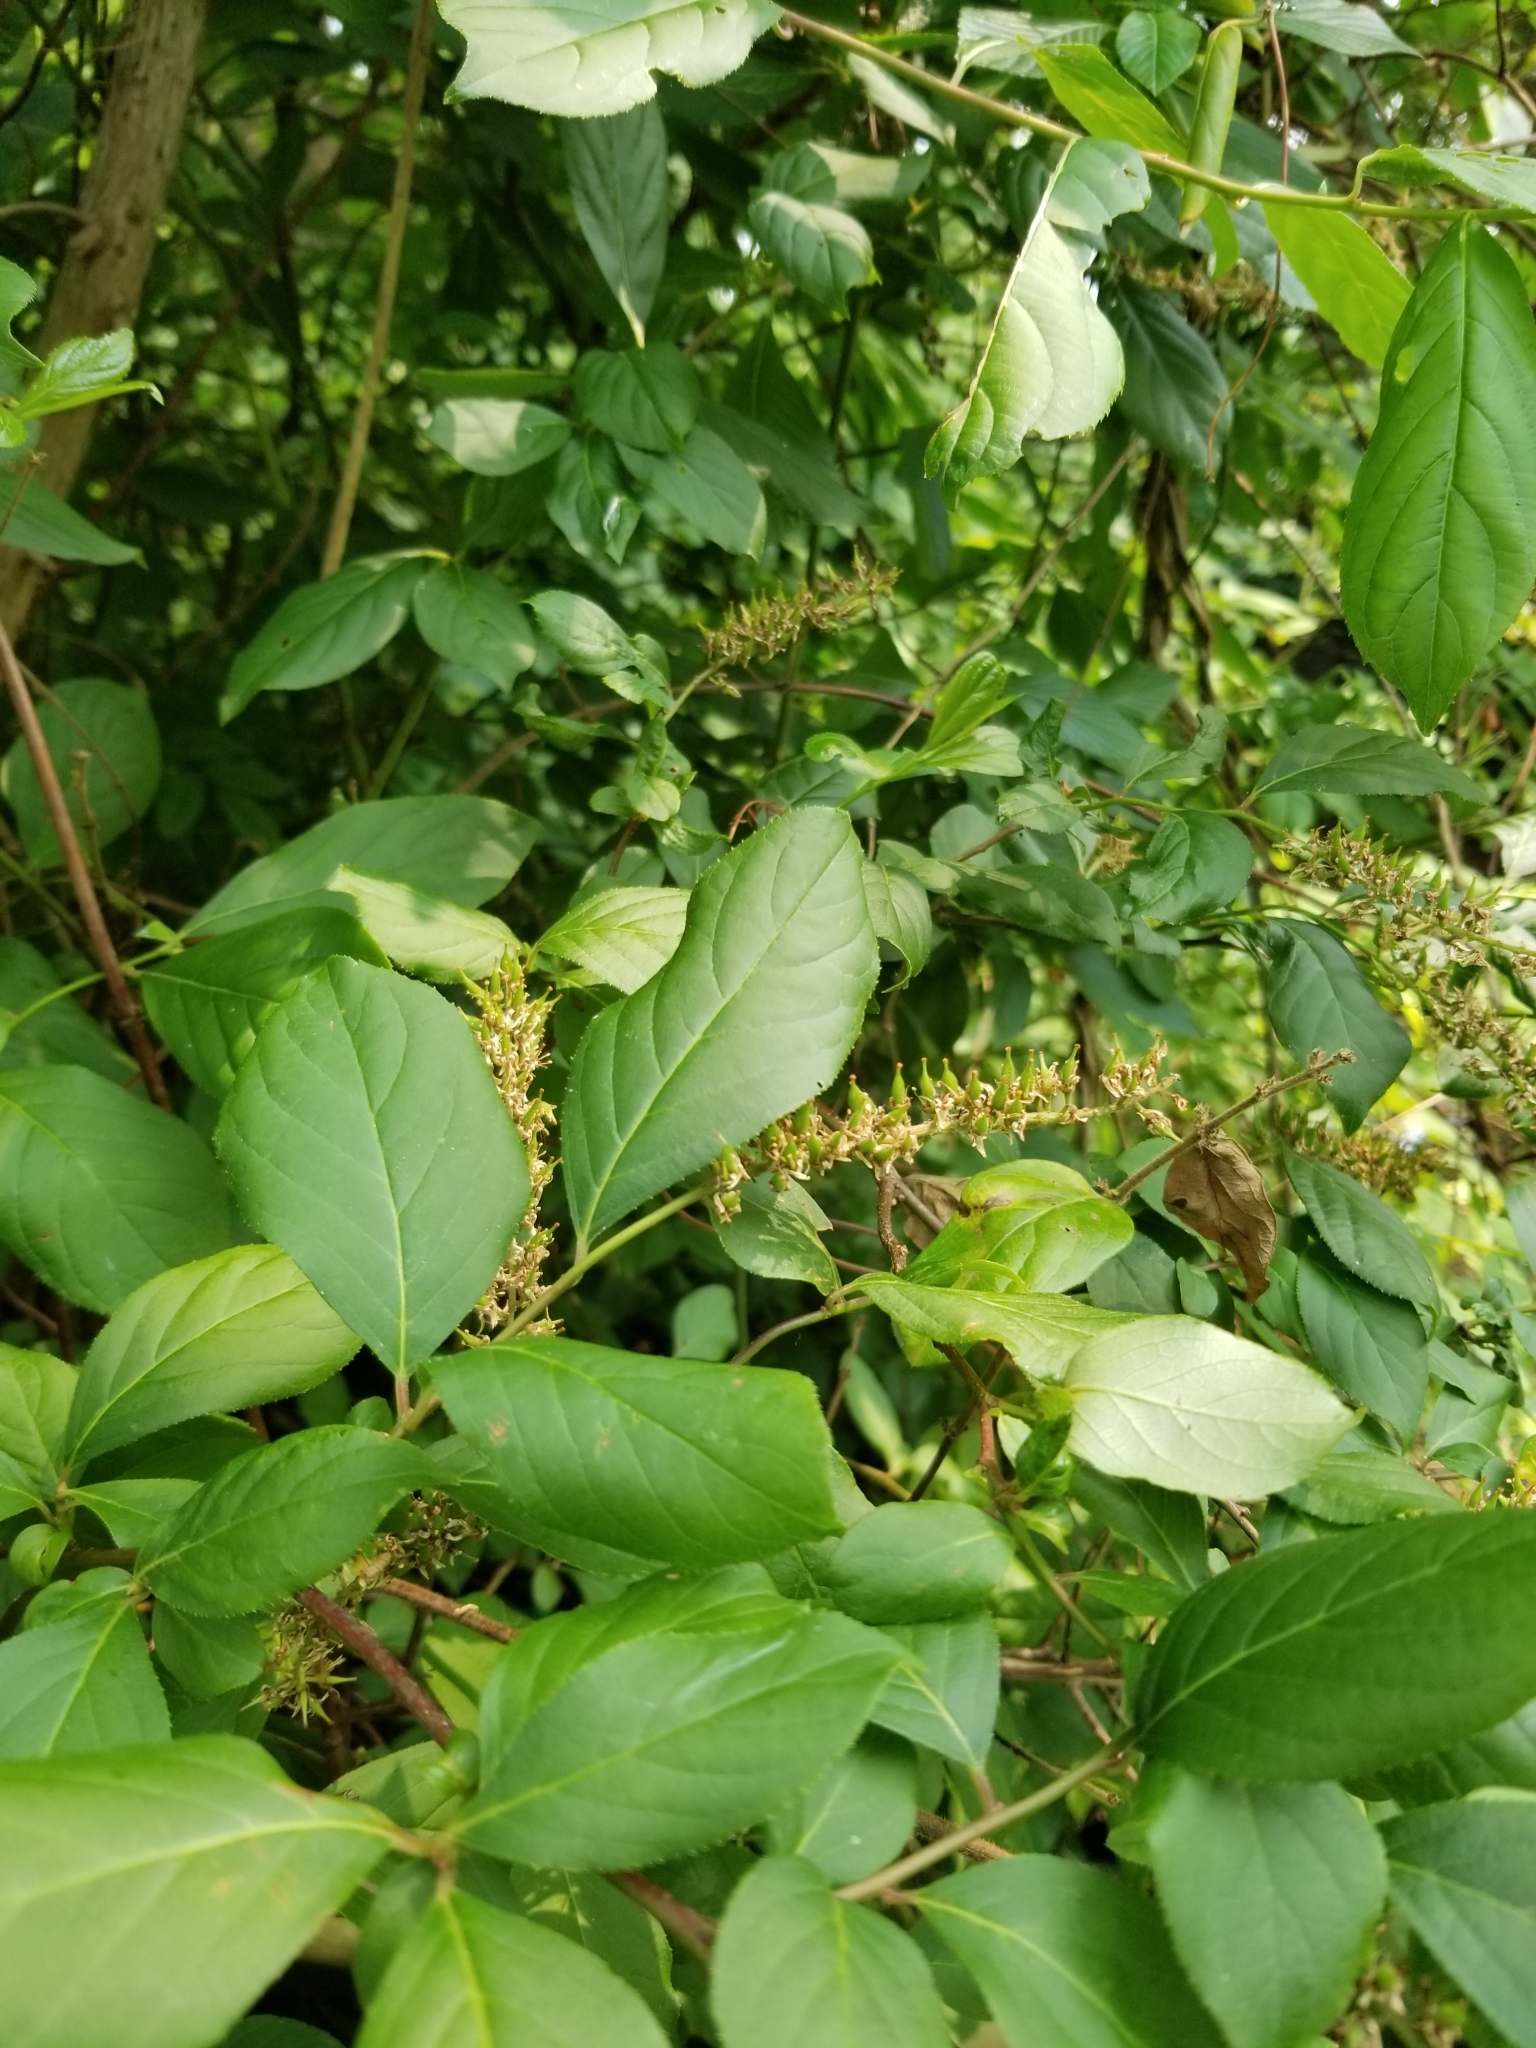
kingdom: Plantae
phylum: Tracheophyta
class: Magnoliopsida
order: Saxifragales
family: Iteaceae
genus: Itea
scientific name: Itea virginica
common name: Sweetspire
